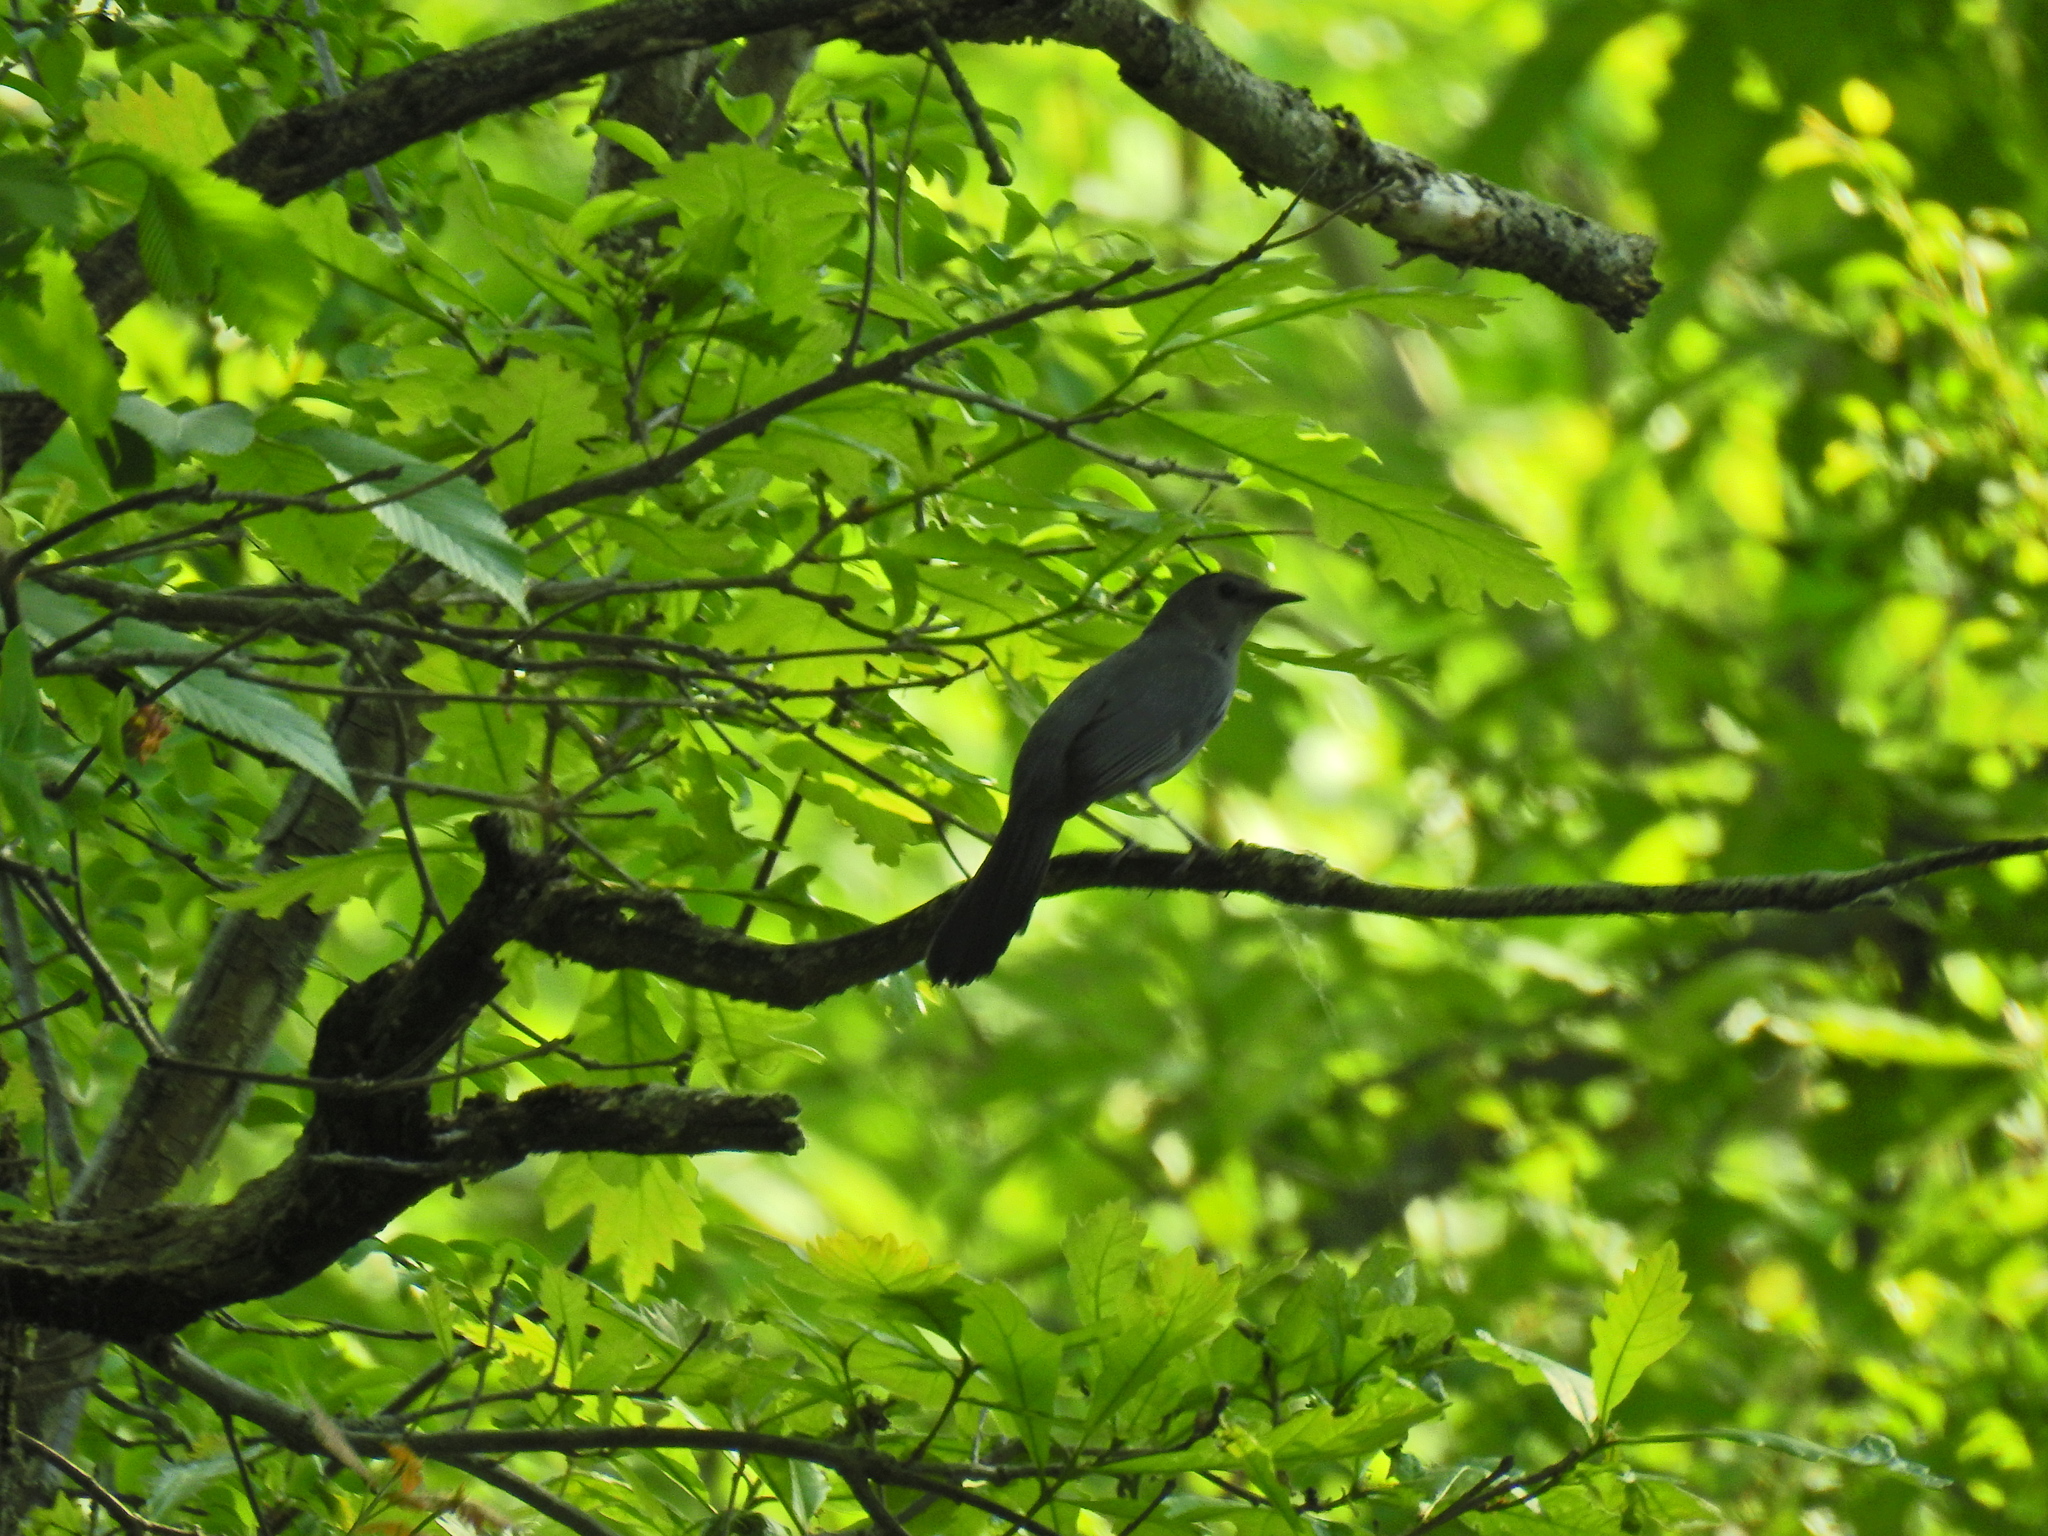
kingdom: Animalia
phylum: Chordata
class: Aves
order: Passeriformes
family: Mimidae
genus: Dumetella
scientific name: Dumetella carolinensis
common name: Gray catbird
